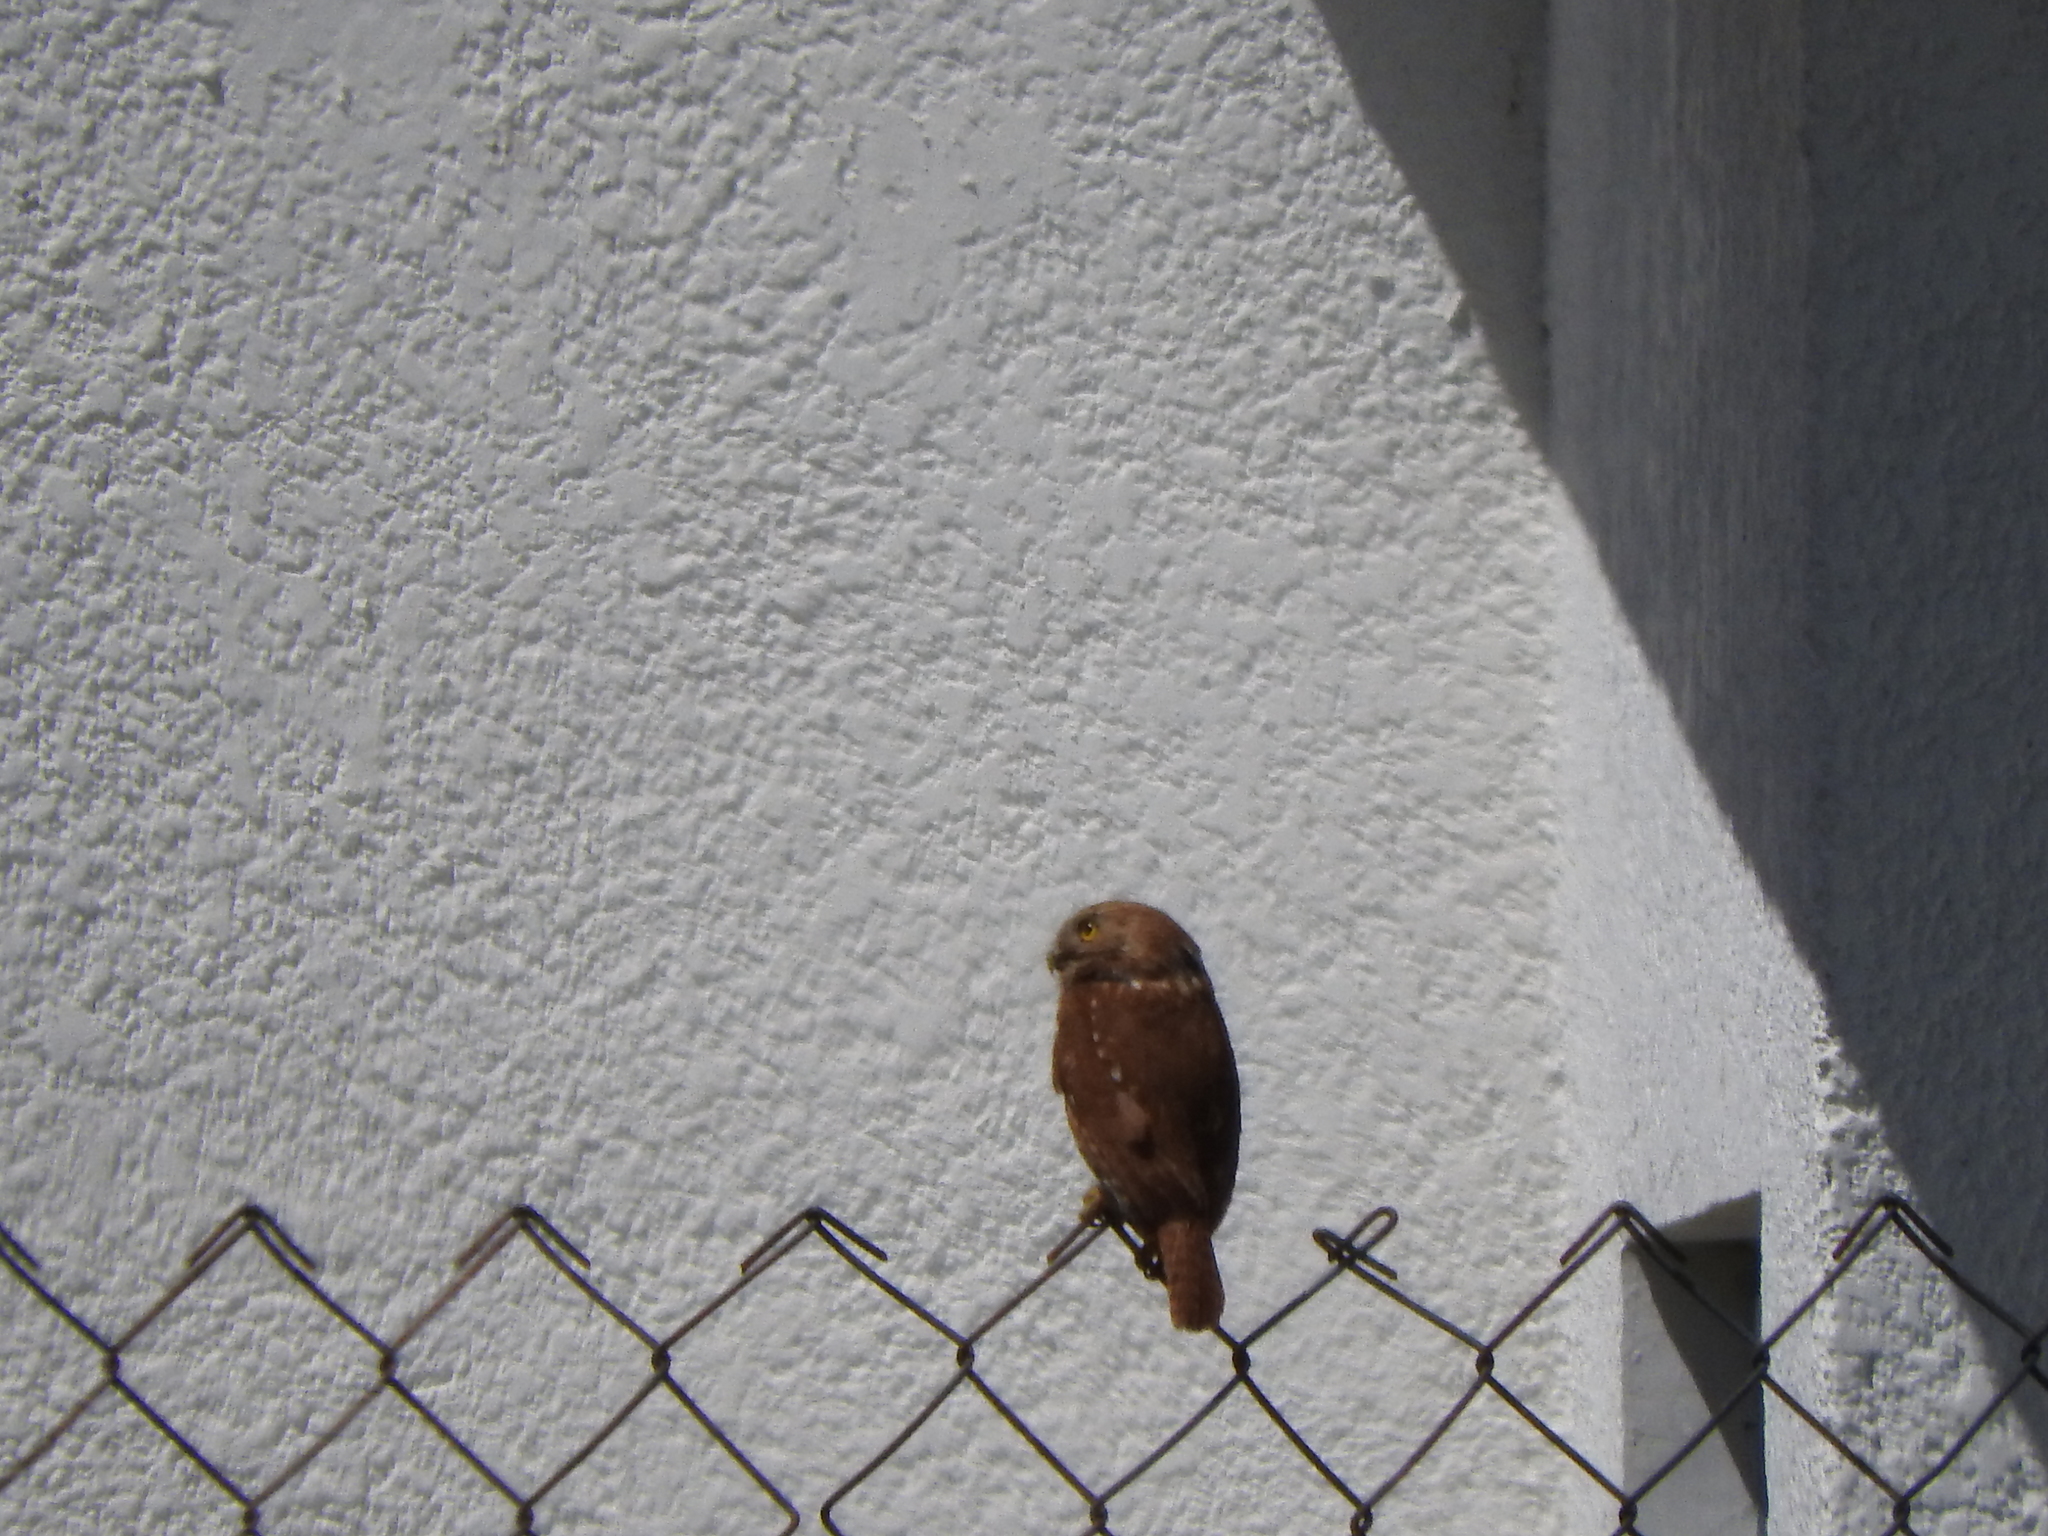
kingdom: Animalia
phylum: Chordata
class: Aves
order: Strigiformes
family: Strigidae
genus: Glaucidium
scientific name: Glaucidium brasilianum
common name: Ferruginous pygmy-owl
